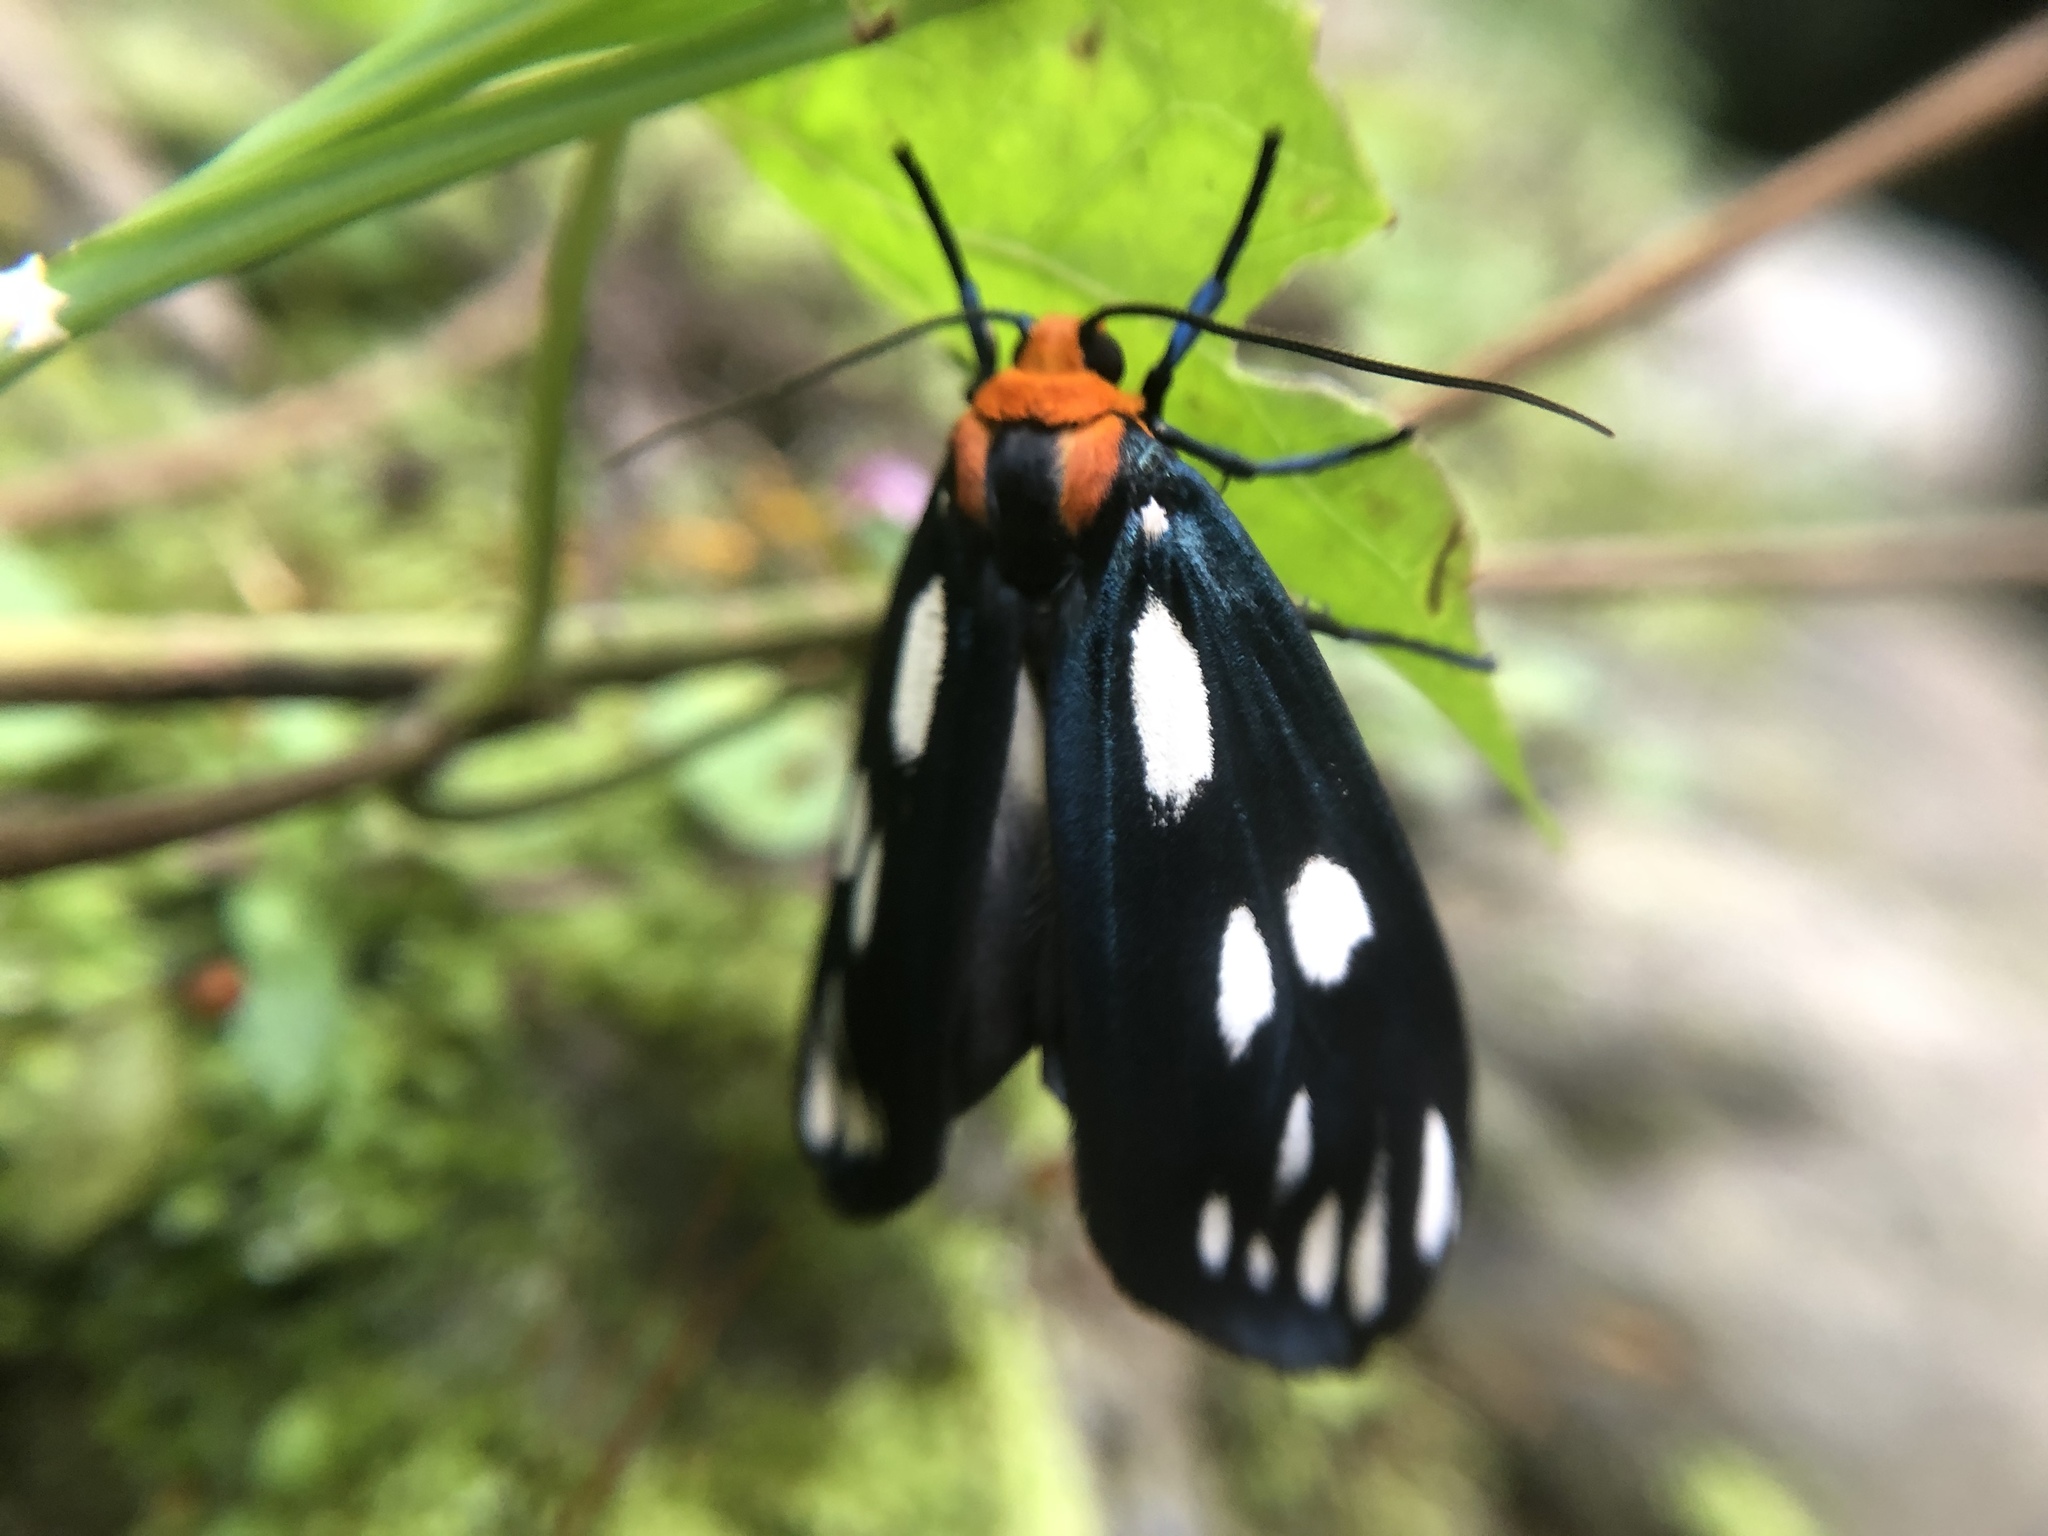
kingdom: Animalia
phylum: Arthropoda
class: Insecta
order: Lepidoptera
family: Erebidae
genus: Macrobrochis
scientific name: Macrobrochis gigas
